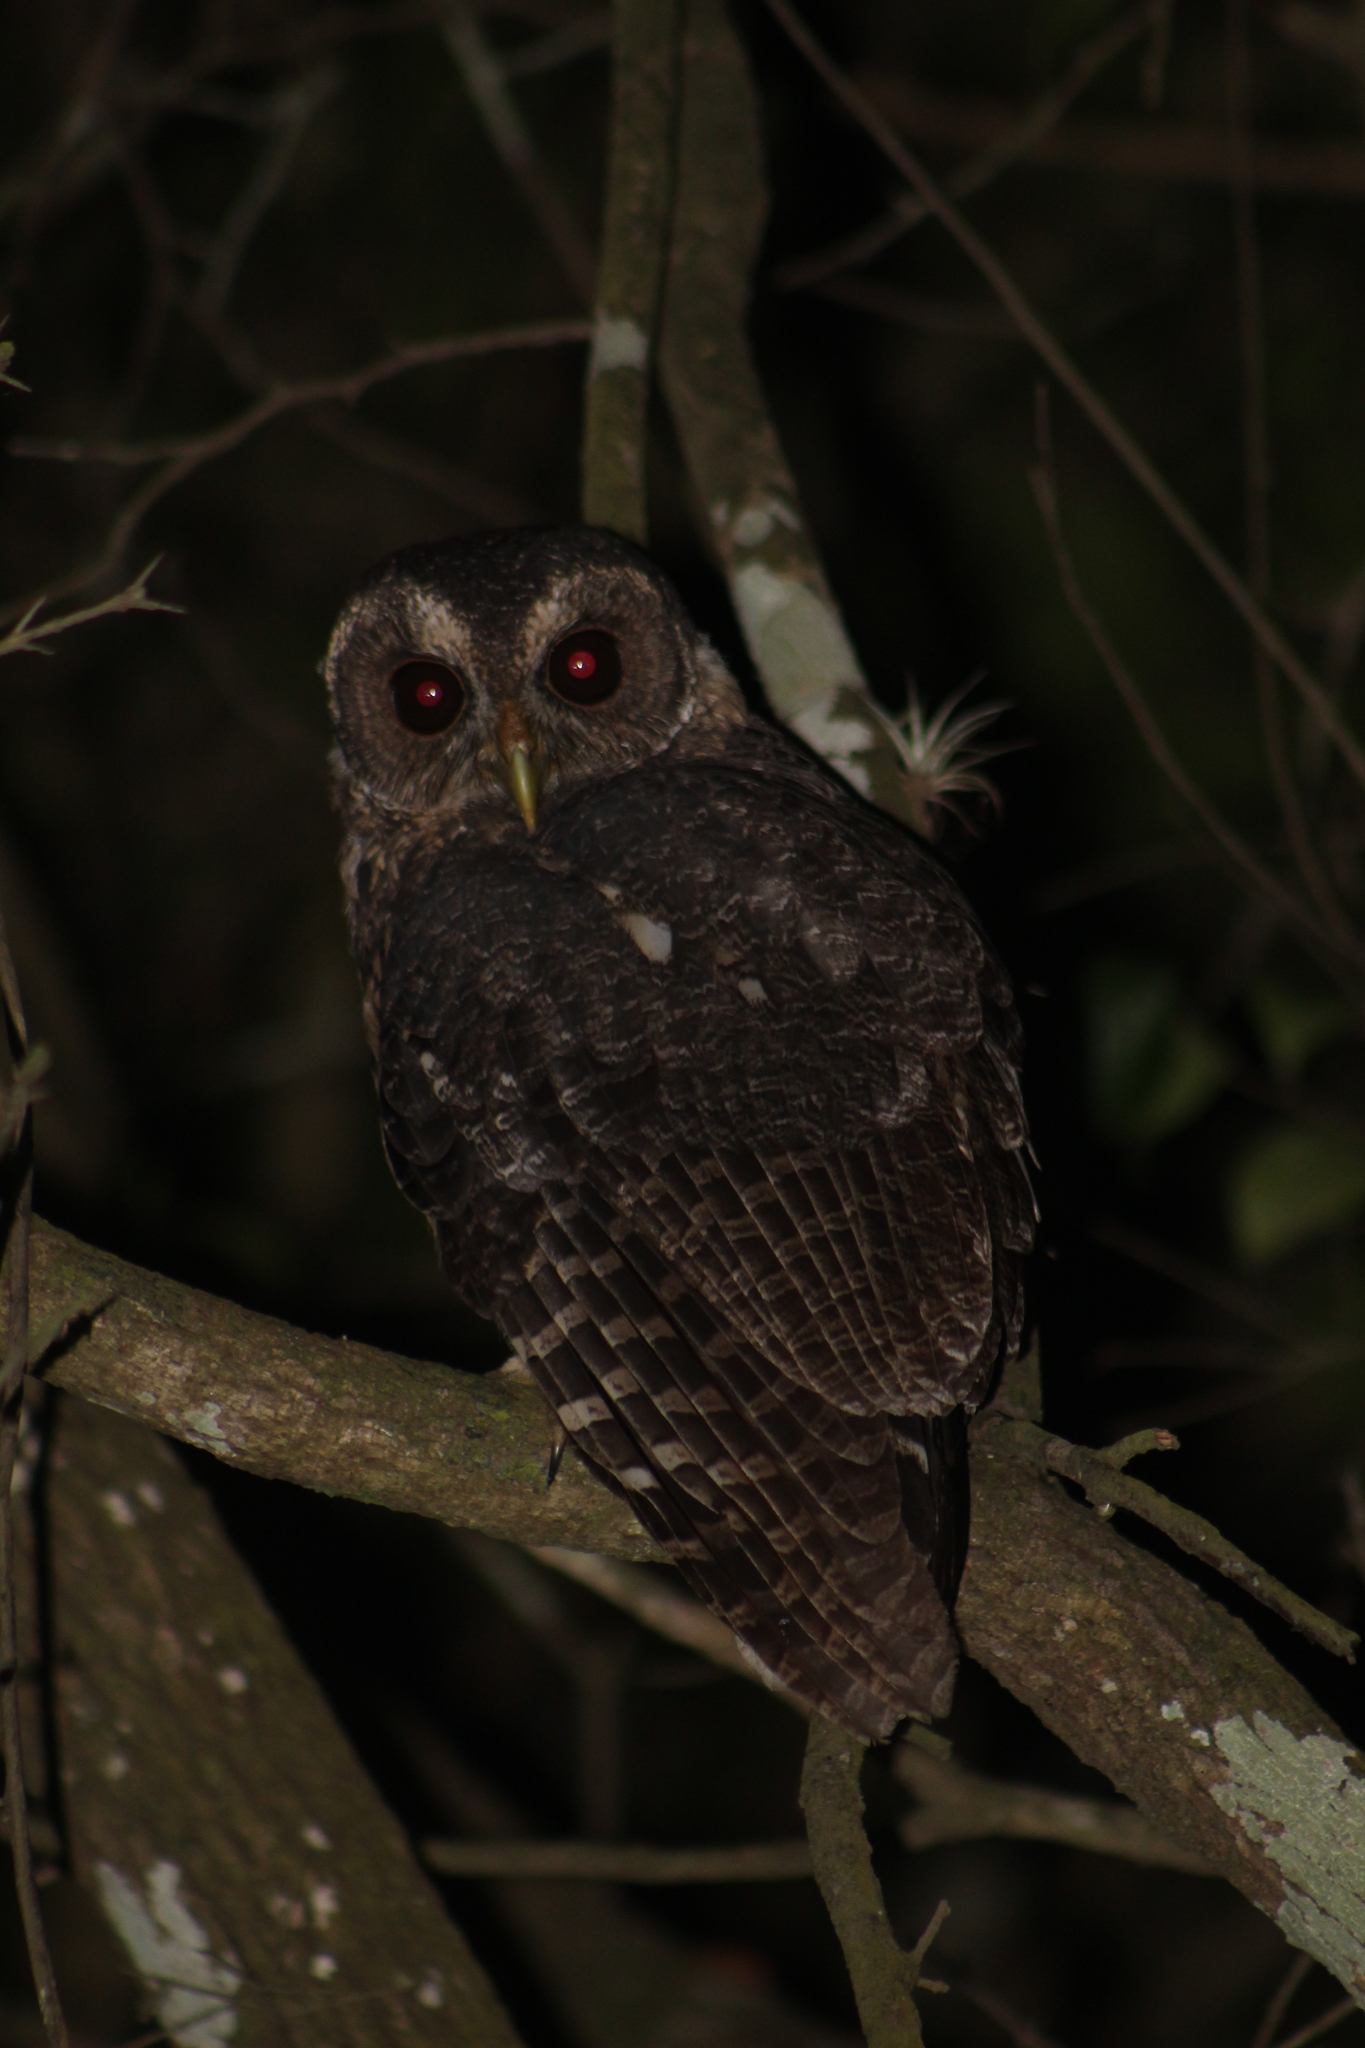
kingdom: Animalia
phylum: Chordata
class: Aves
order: Strigiformes
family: Strigidae
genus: Strix
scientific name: Strix virgata
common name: Mottled owl
